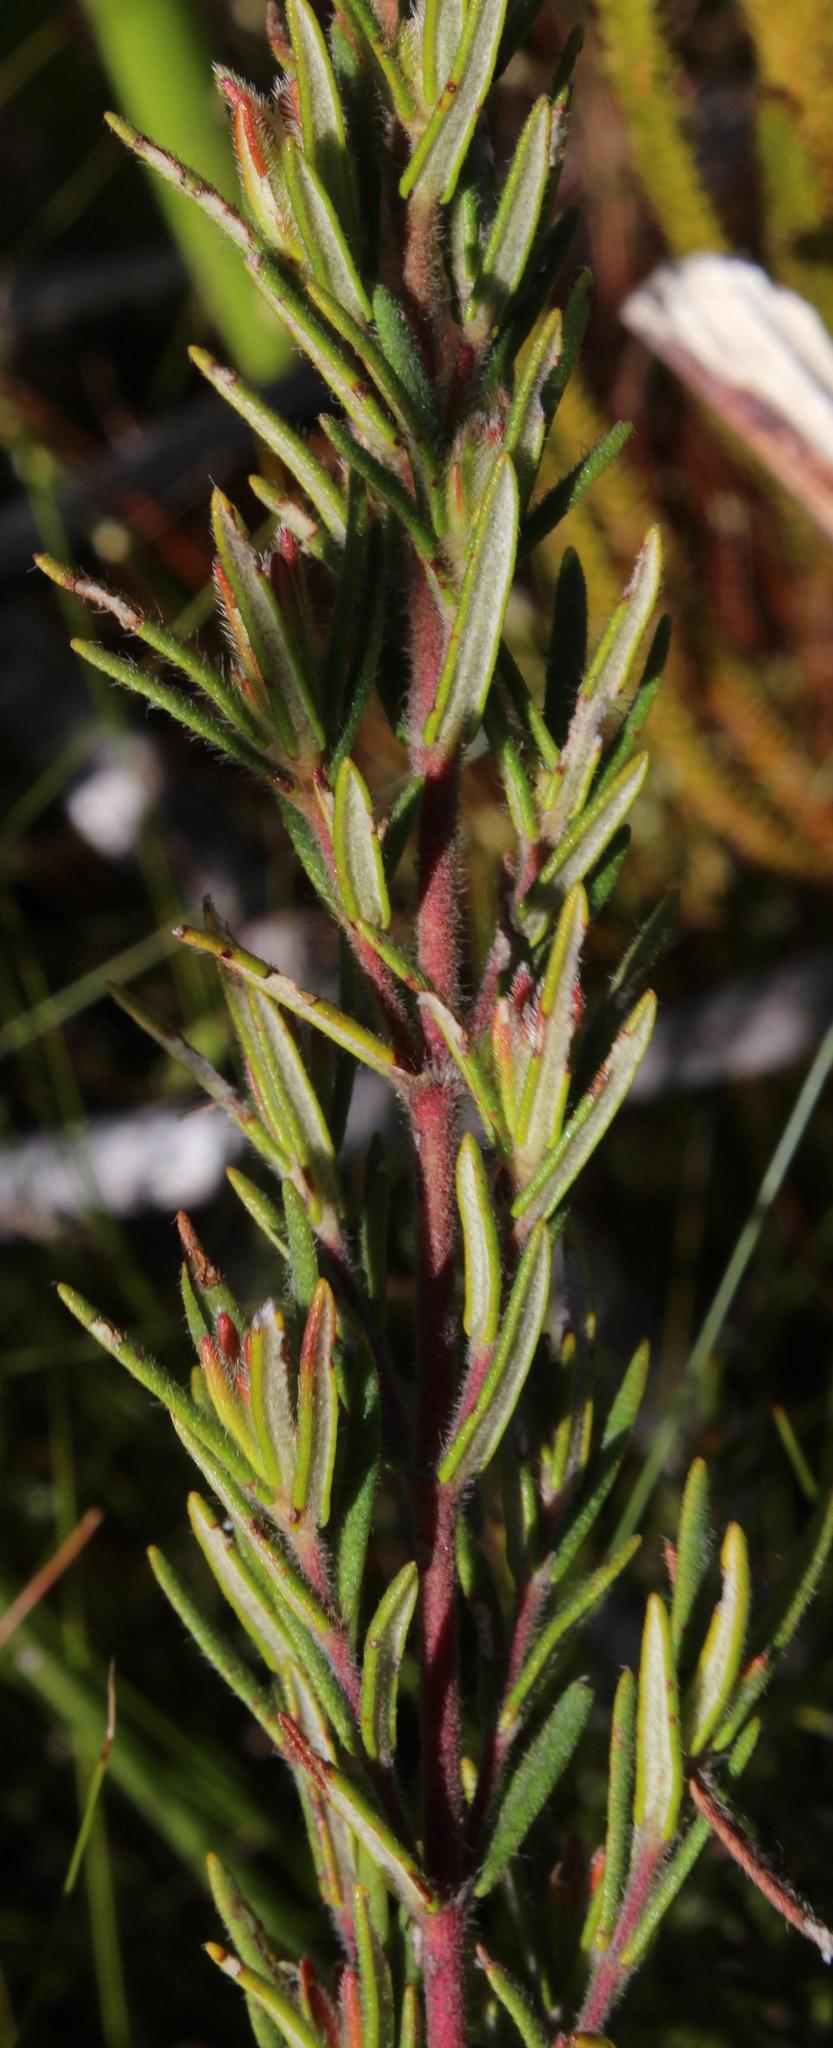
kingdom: Plantae
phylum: Tracheophyta
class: Magnoliopsida
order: Cornales
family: Grubbiaceae
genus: Grubbia
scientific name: Grubbia rosmarinifolia
